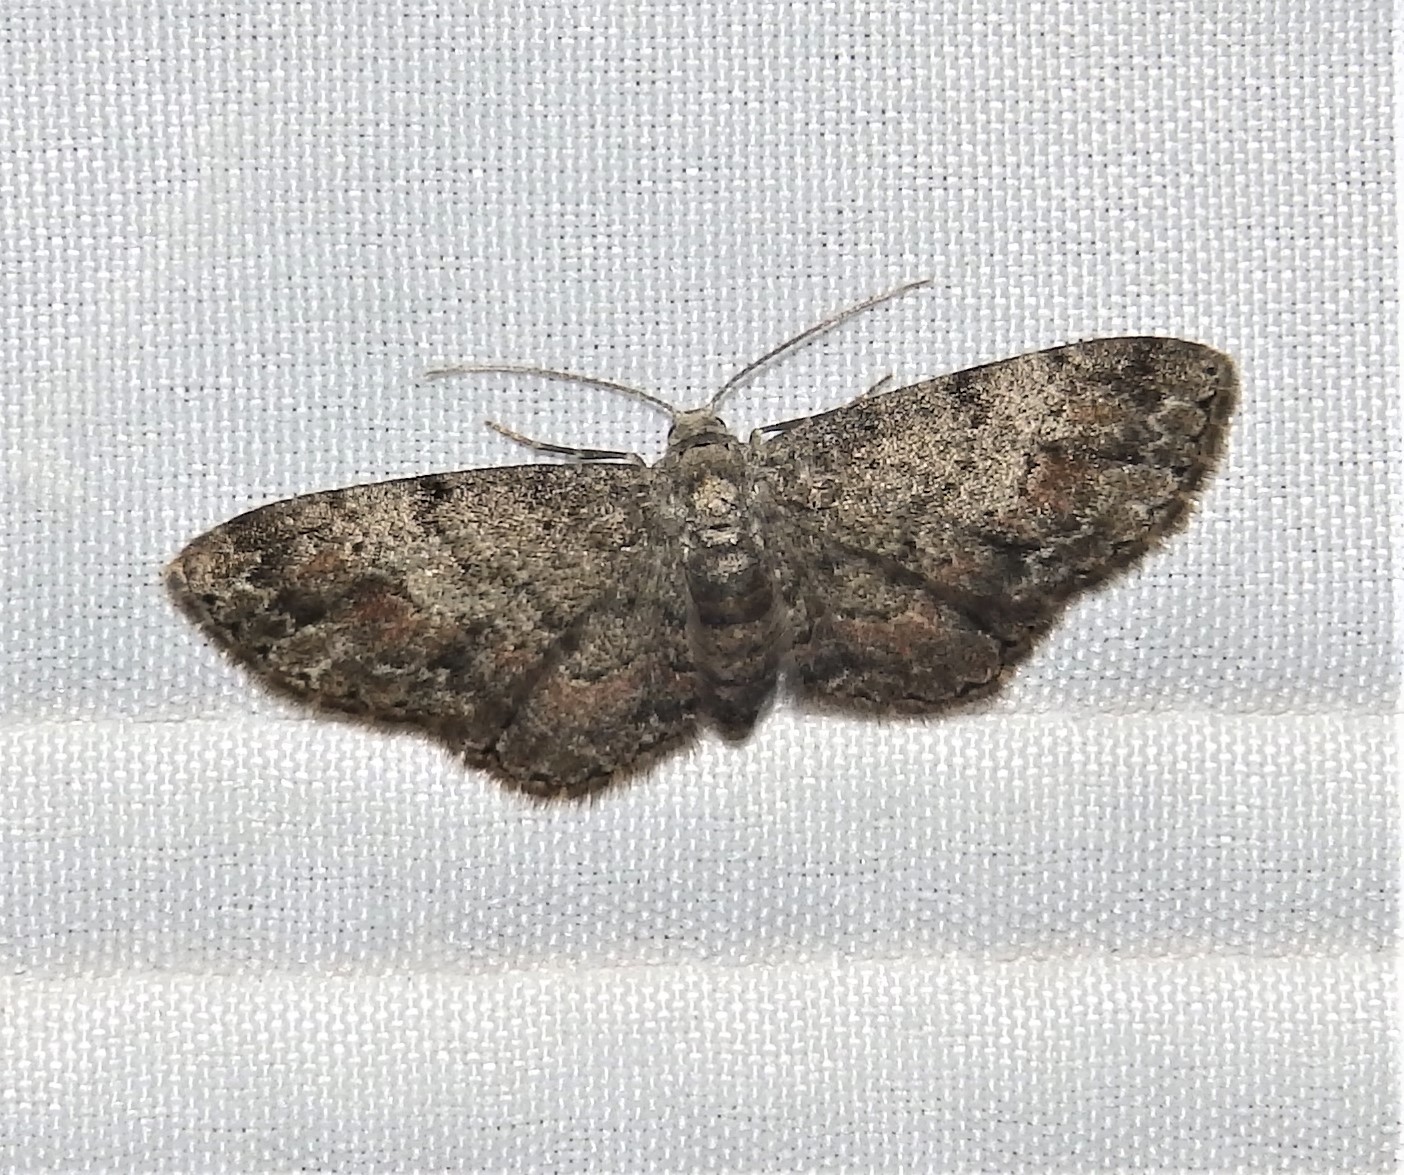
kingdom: Animalia
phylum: Arthropoda
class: Insecta
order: Lepidoptera
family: Geometridae
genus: Glenoides
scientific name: Glenoides texanaria
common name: Texas gray
